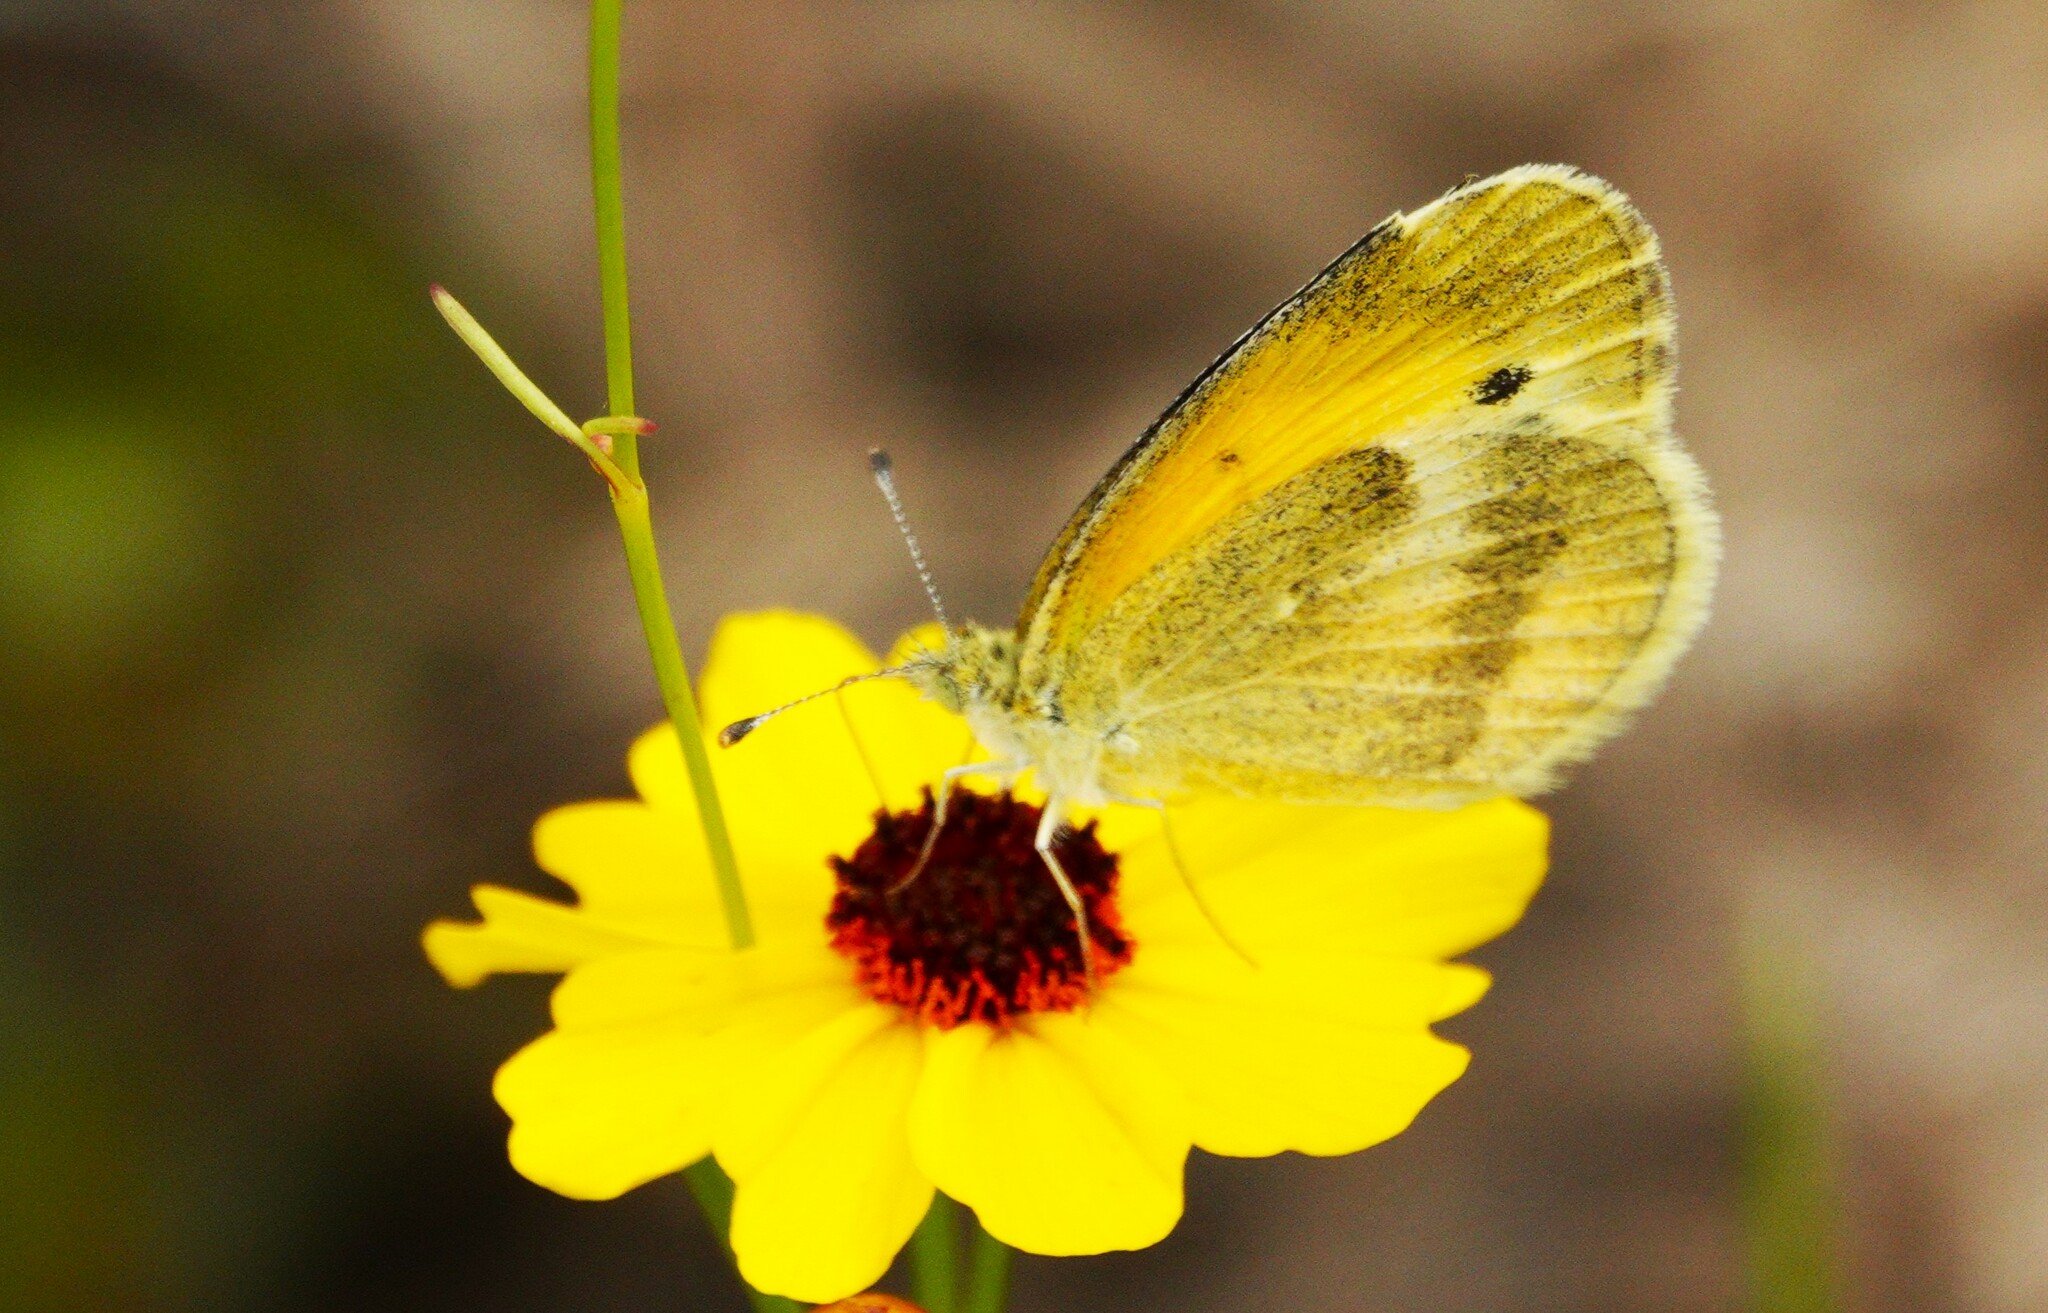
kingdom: Animalia
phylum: Arthropoda
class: Insecta
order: Lepidoptera
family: Pieridae
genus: Nathalis
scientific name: Nathalis iole
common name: Dainty sulphur
